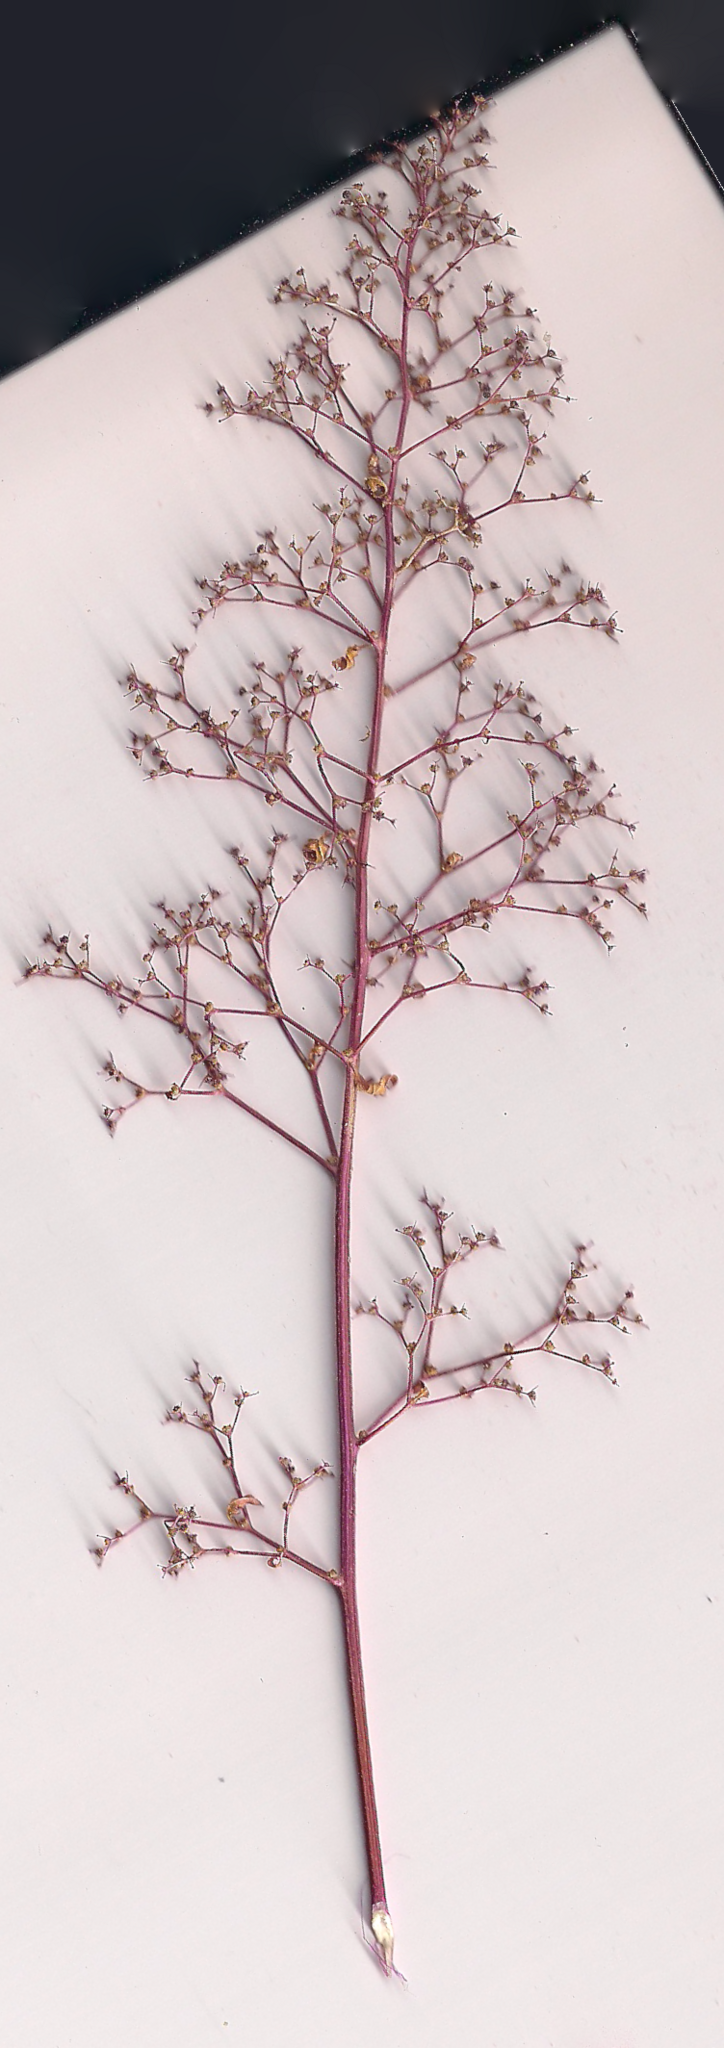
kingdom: Plantae
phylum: Tracheophyta
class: Magnoliopsida
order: Caryophyllales
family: Amaranthaceae
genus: Dysphania
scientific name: Dysphania incisa
